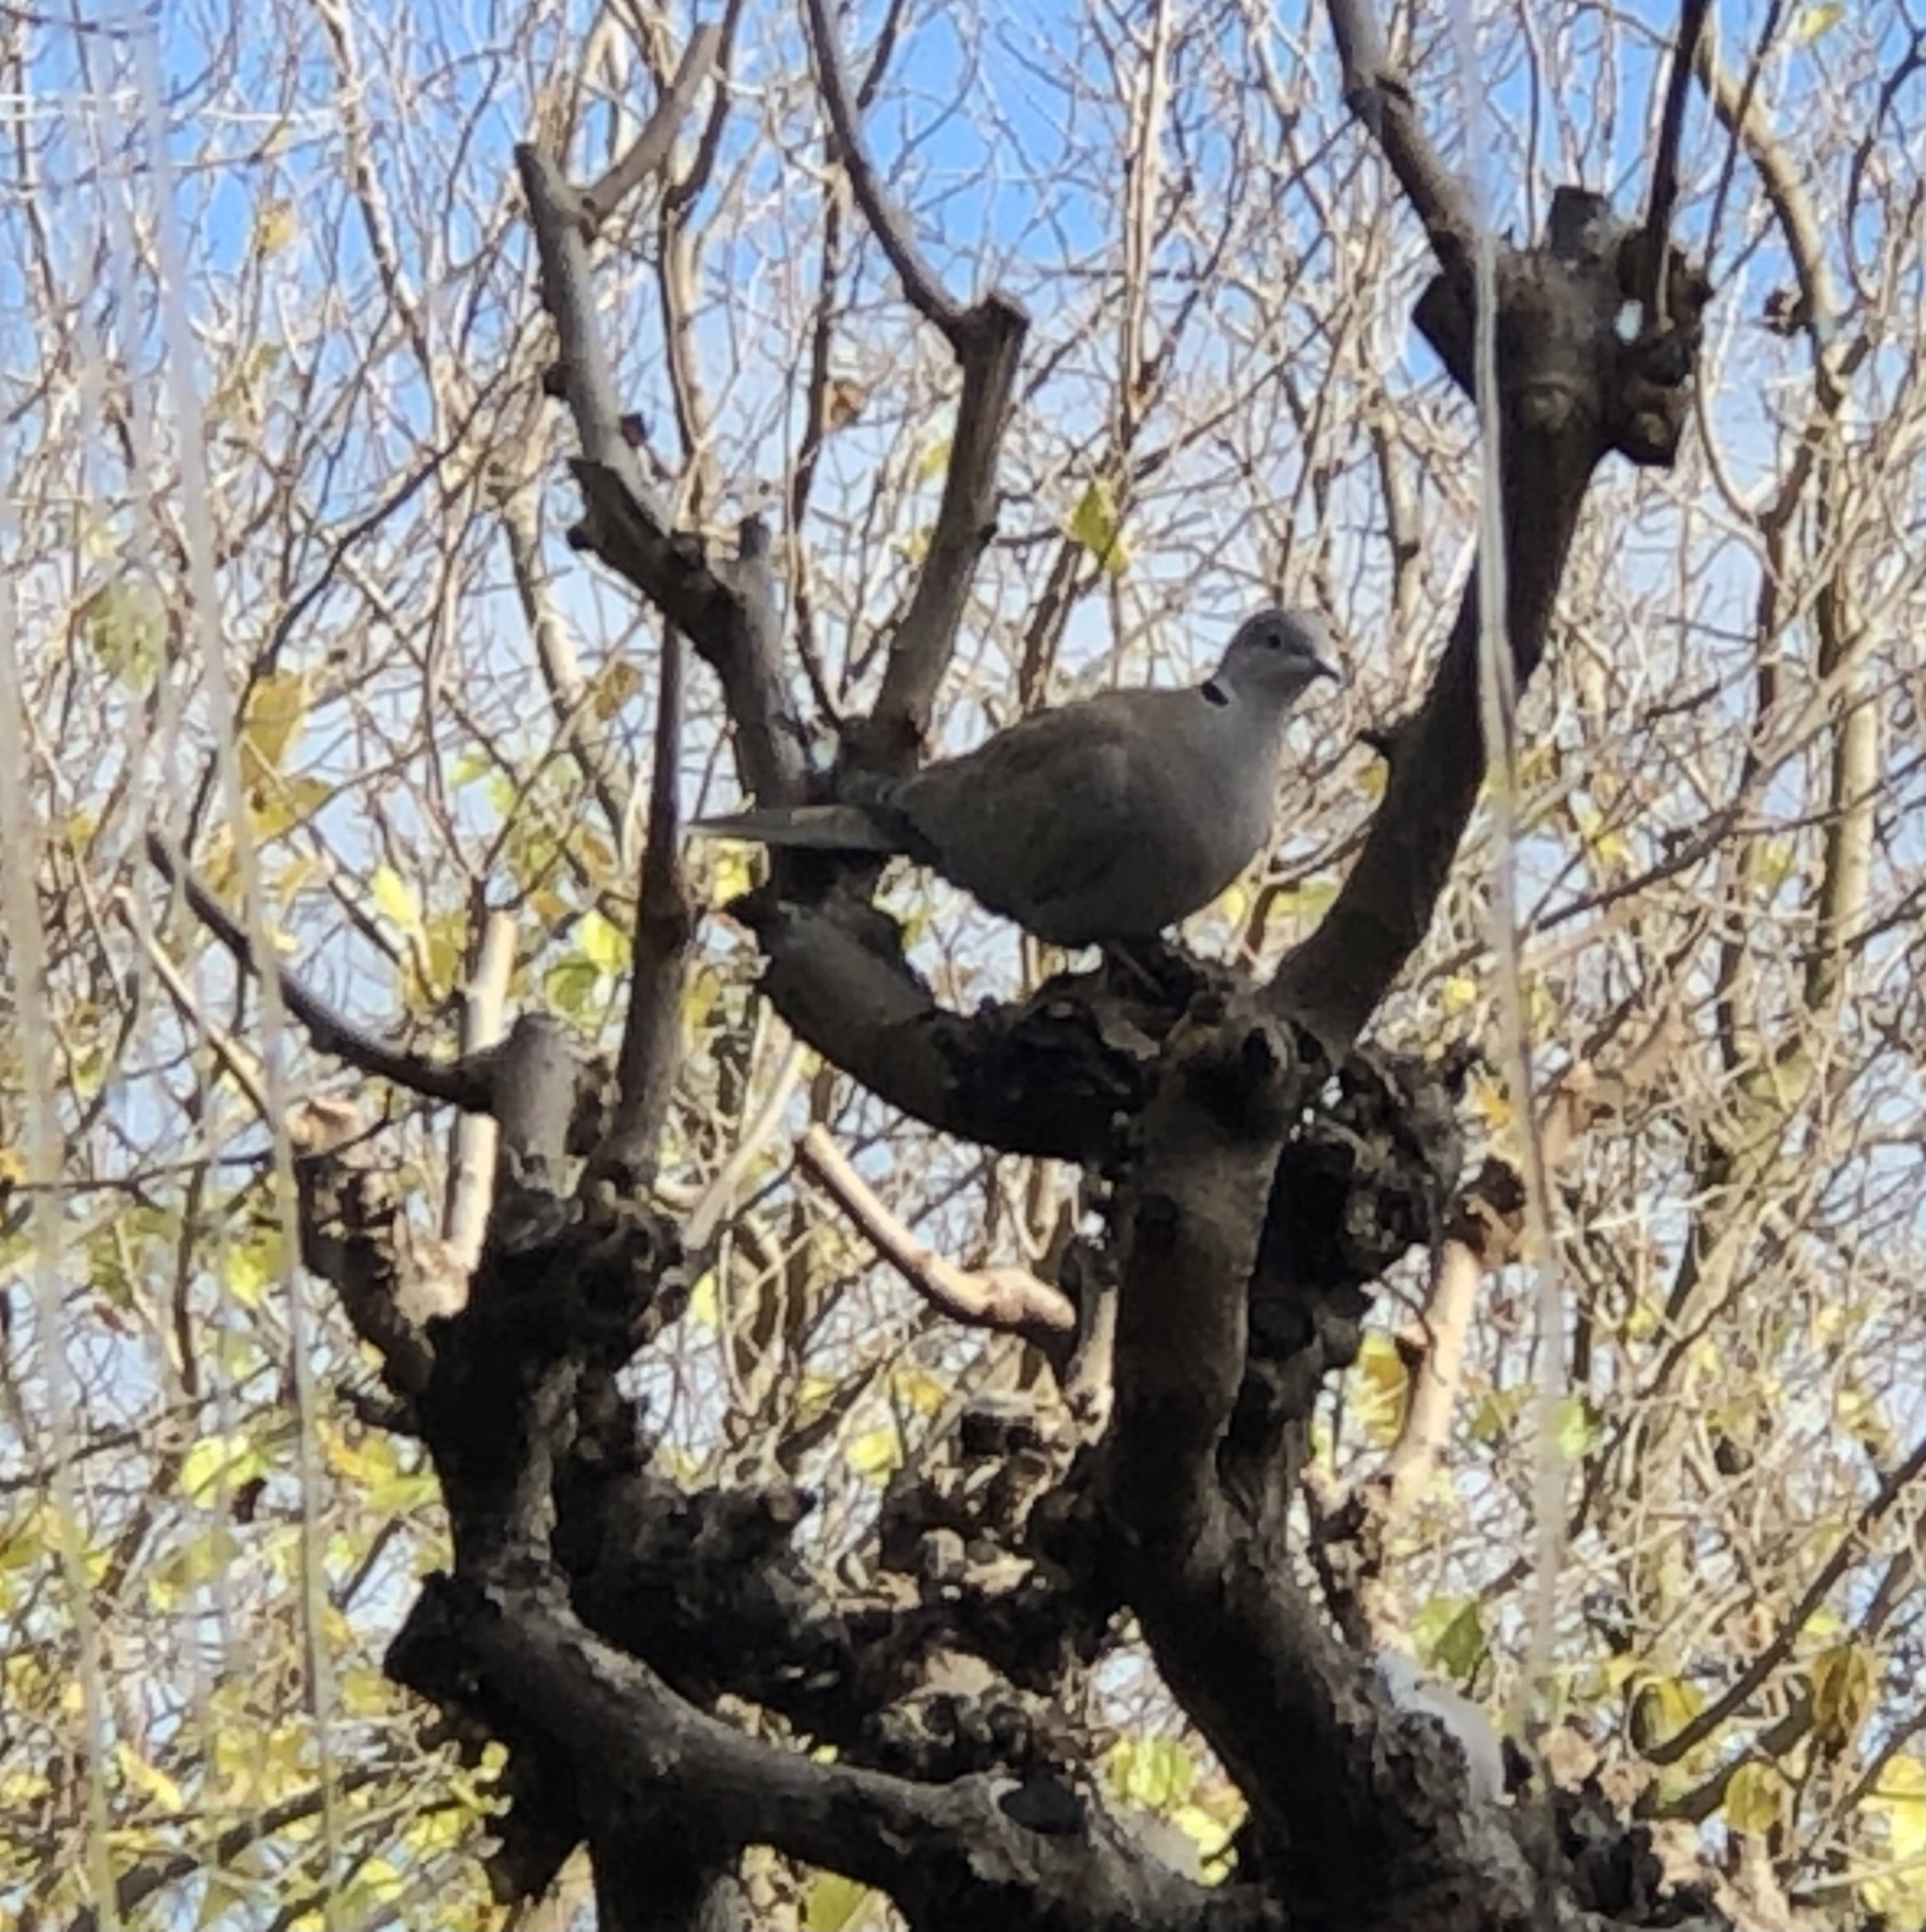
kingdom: Animalia
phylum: Chordata
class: Aves
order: Columbiformes
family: Columbidae
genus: Streptopelia
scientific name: Streptopelia decaocto
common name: Eurasian collared dove
